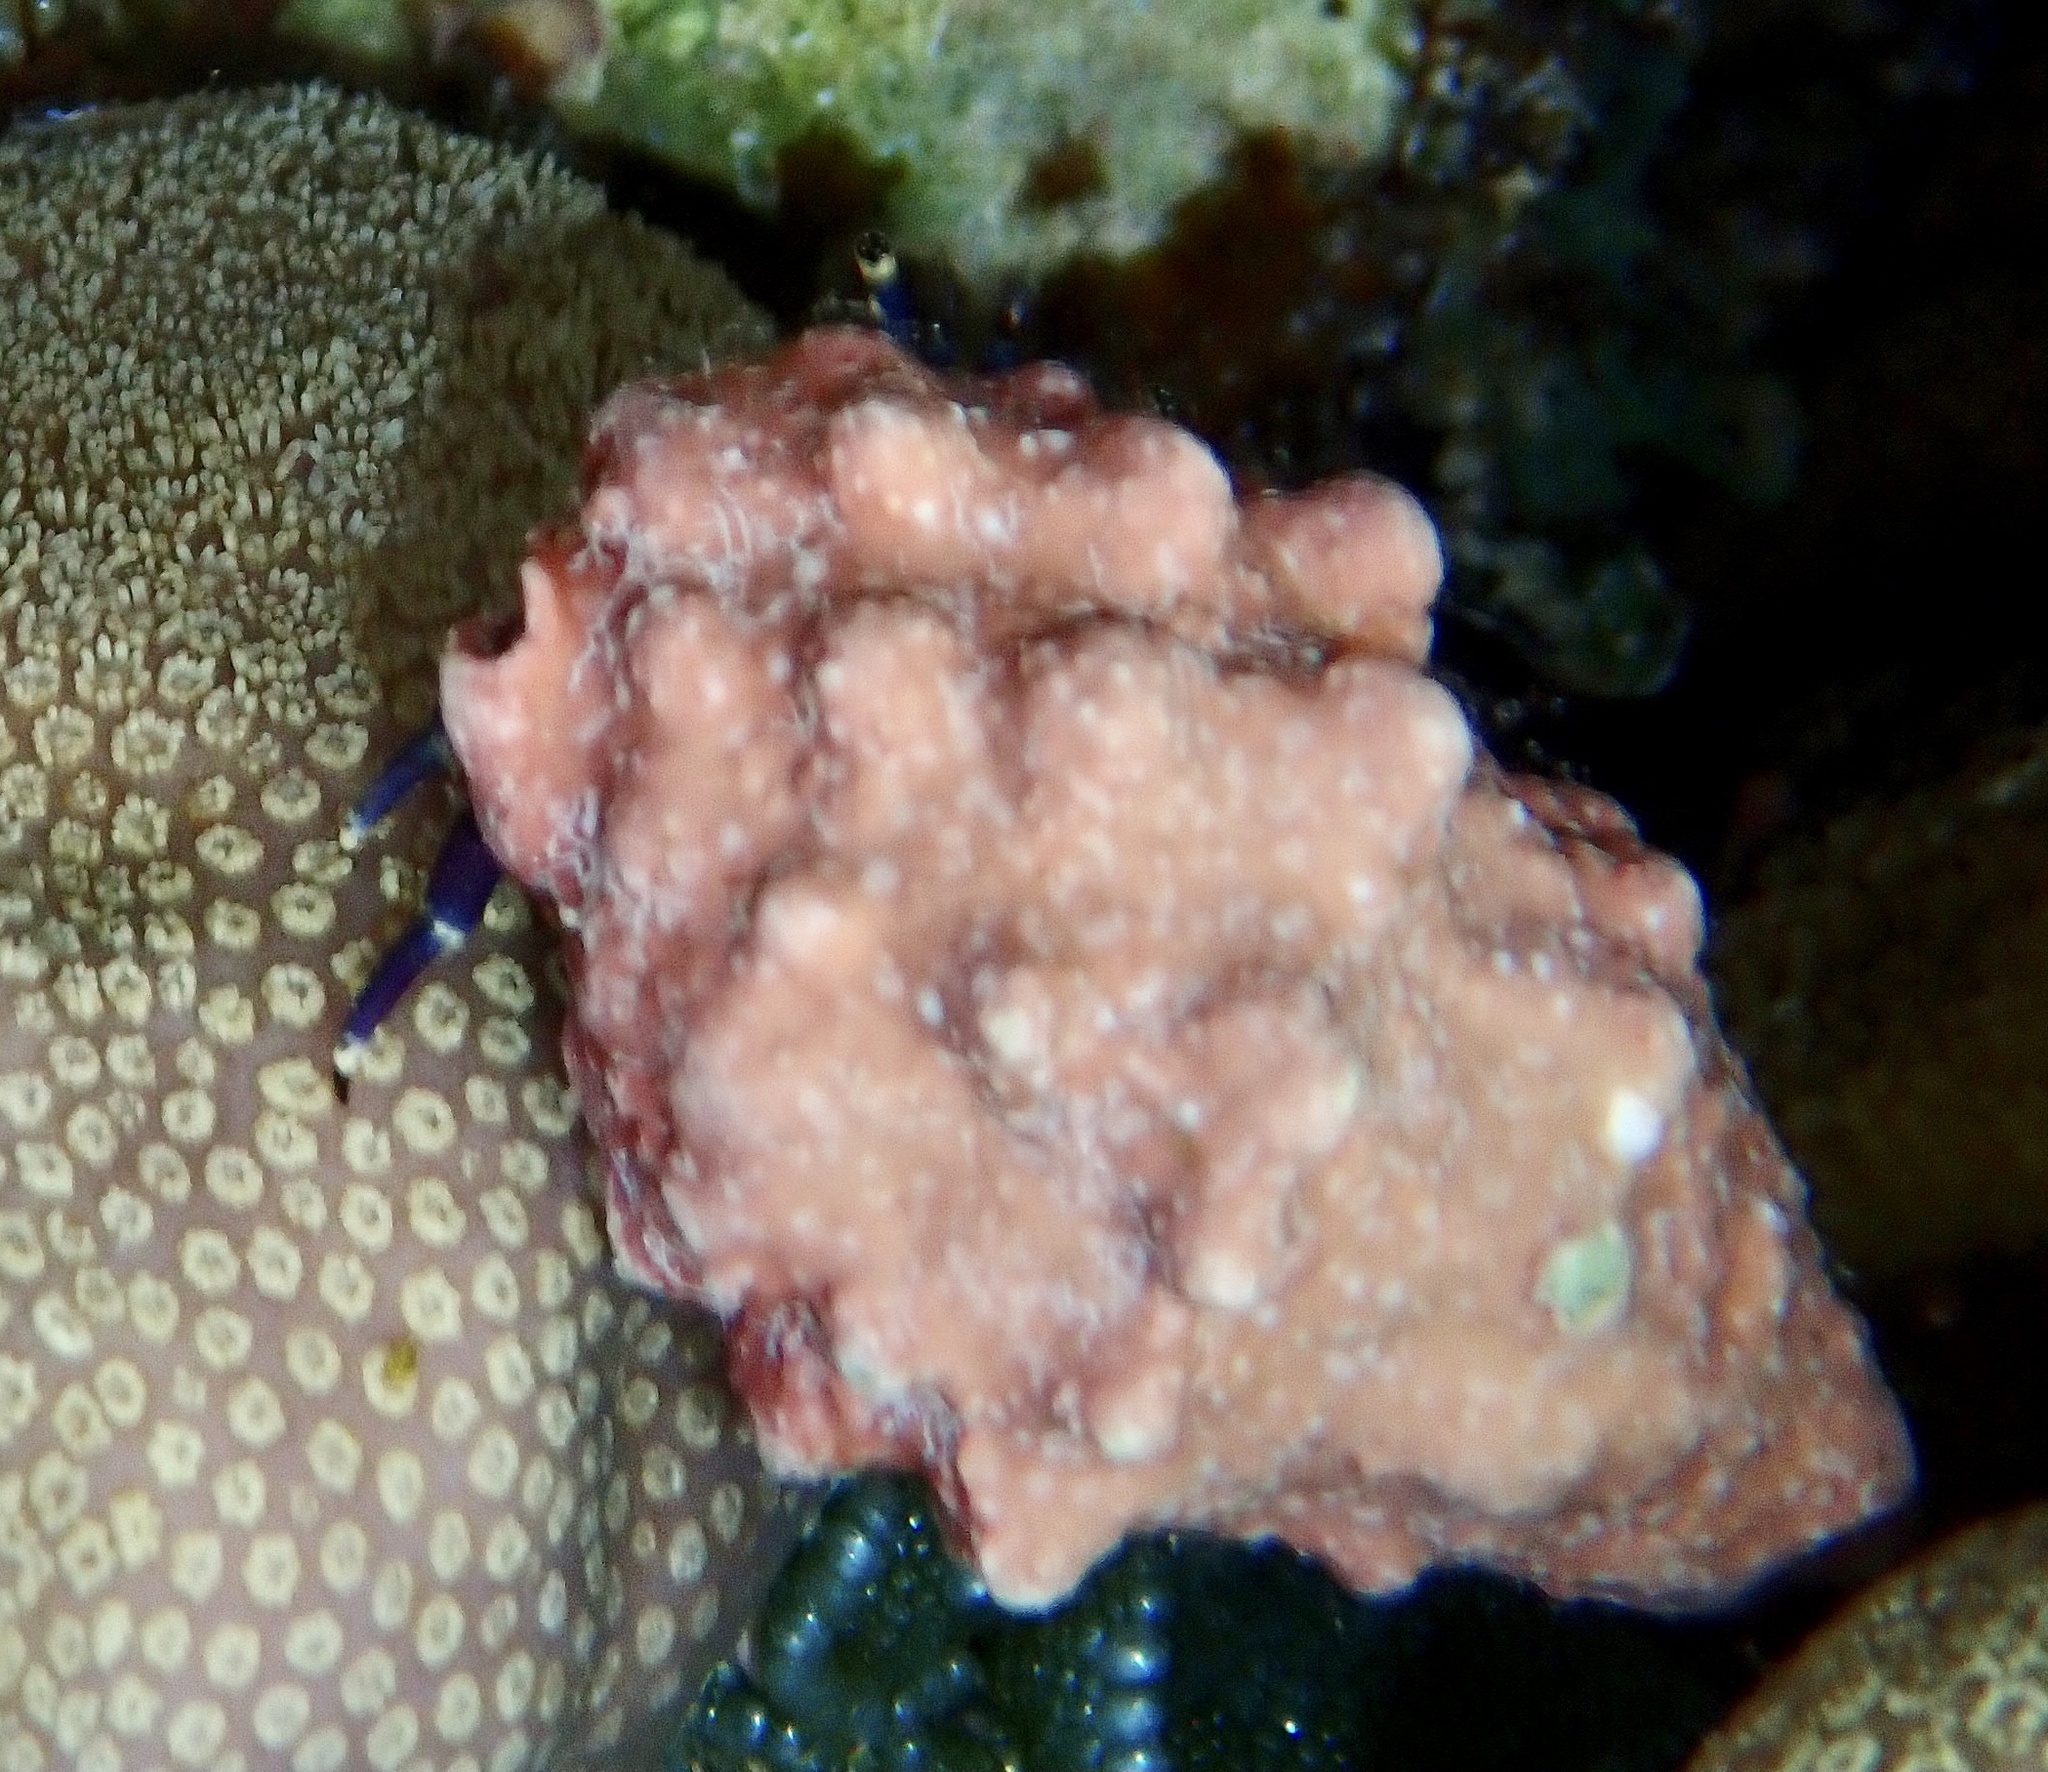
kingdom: Animalia
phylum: Mollusca
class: Gastropoda
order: Neogastropoda
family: Muricidae
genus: Drupella
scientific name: Drupella cornus
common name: Horn drupe
